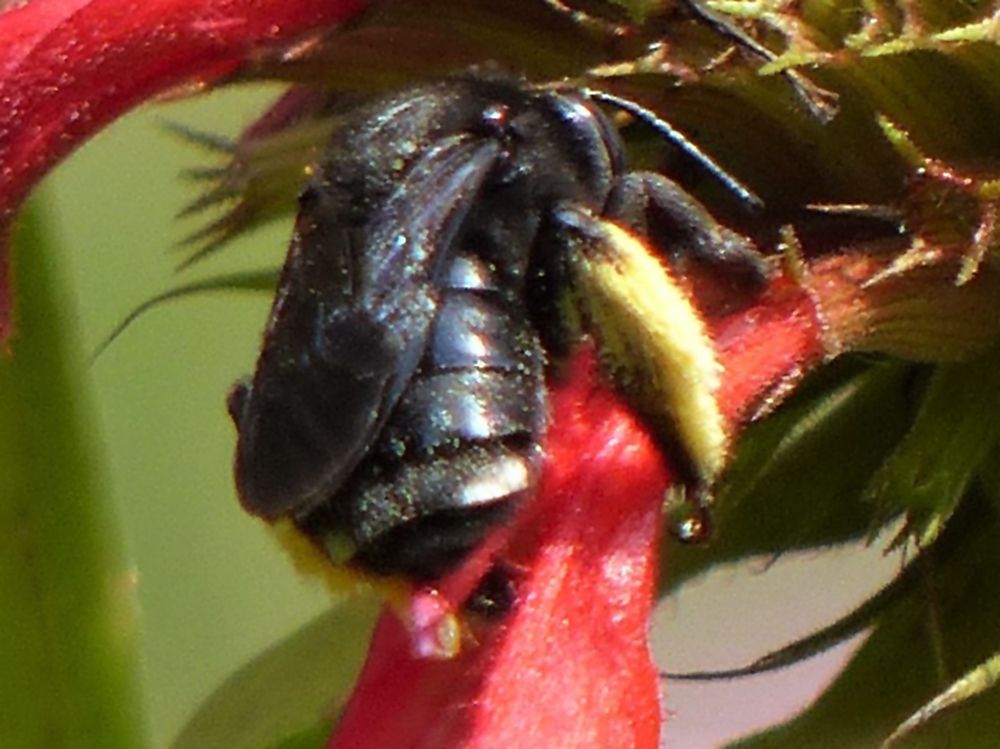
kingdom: Animalia
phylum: Arthropoda
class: Insecta
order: Hymenoptera
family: Apidae
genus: Melissodes
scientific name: Melissodes bimaculatus
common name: Two-spotted long-horned bee
